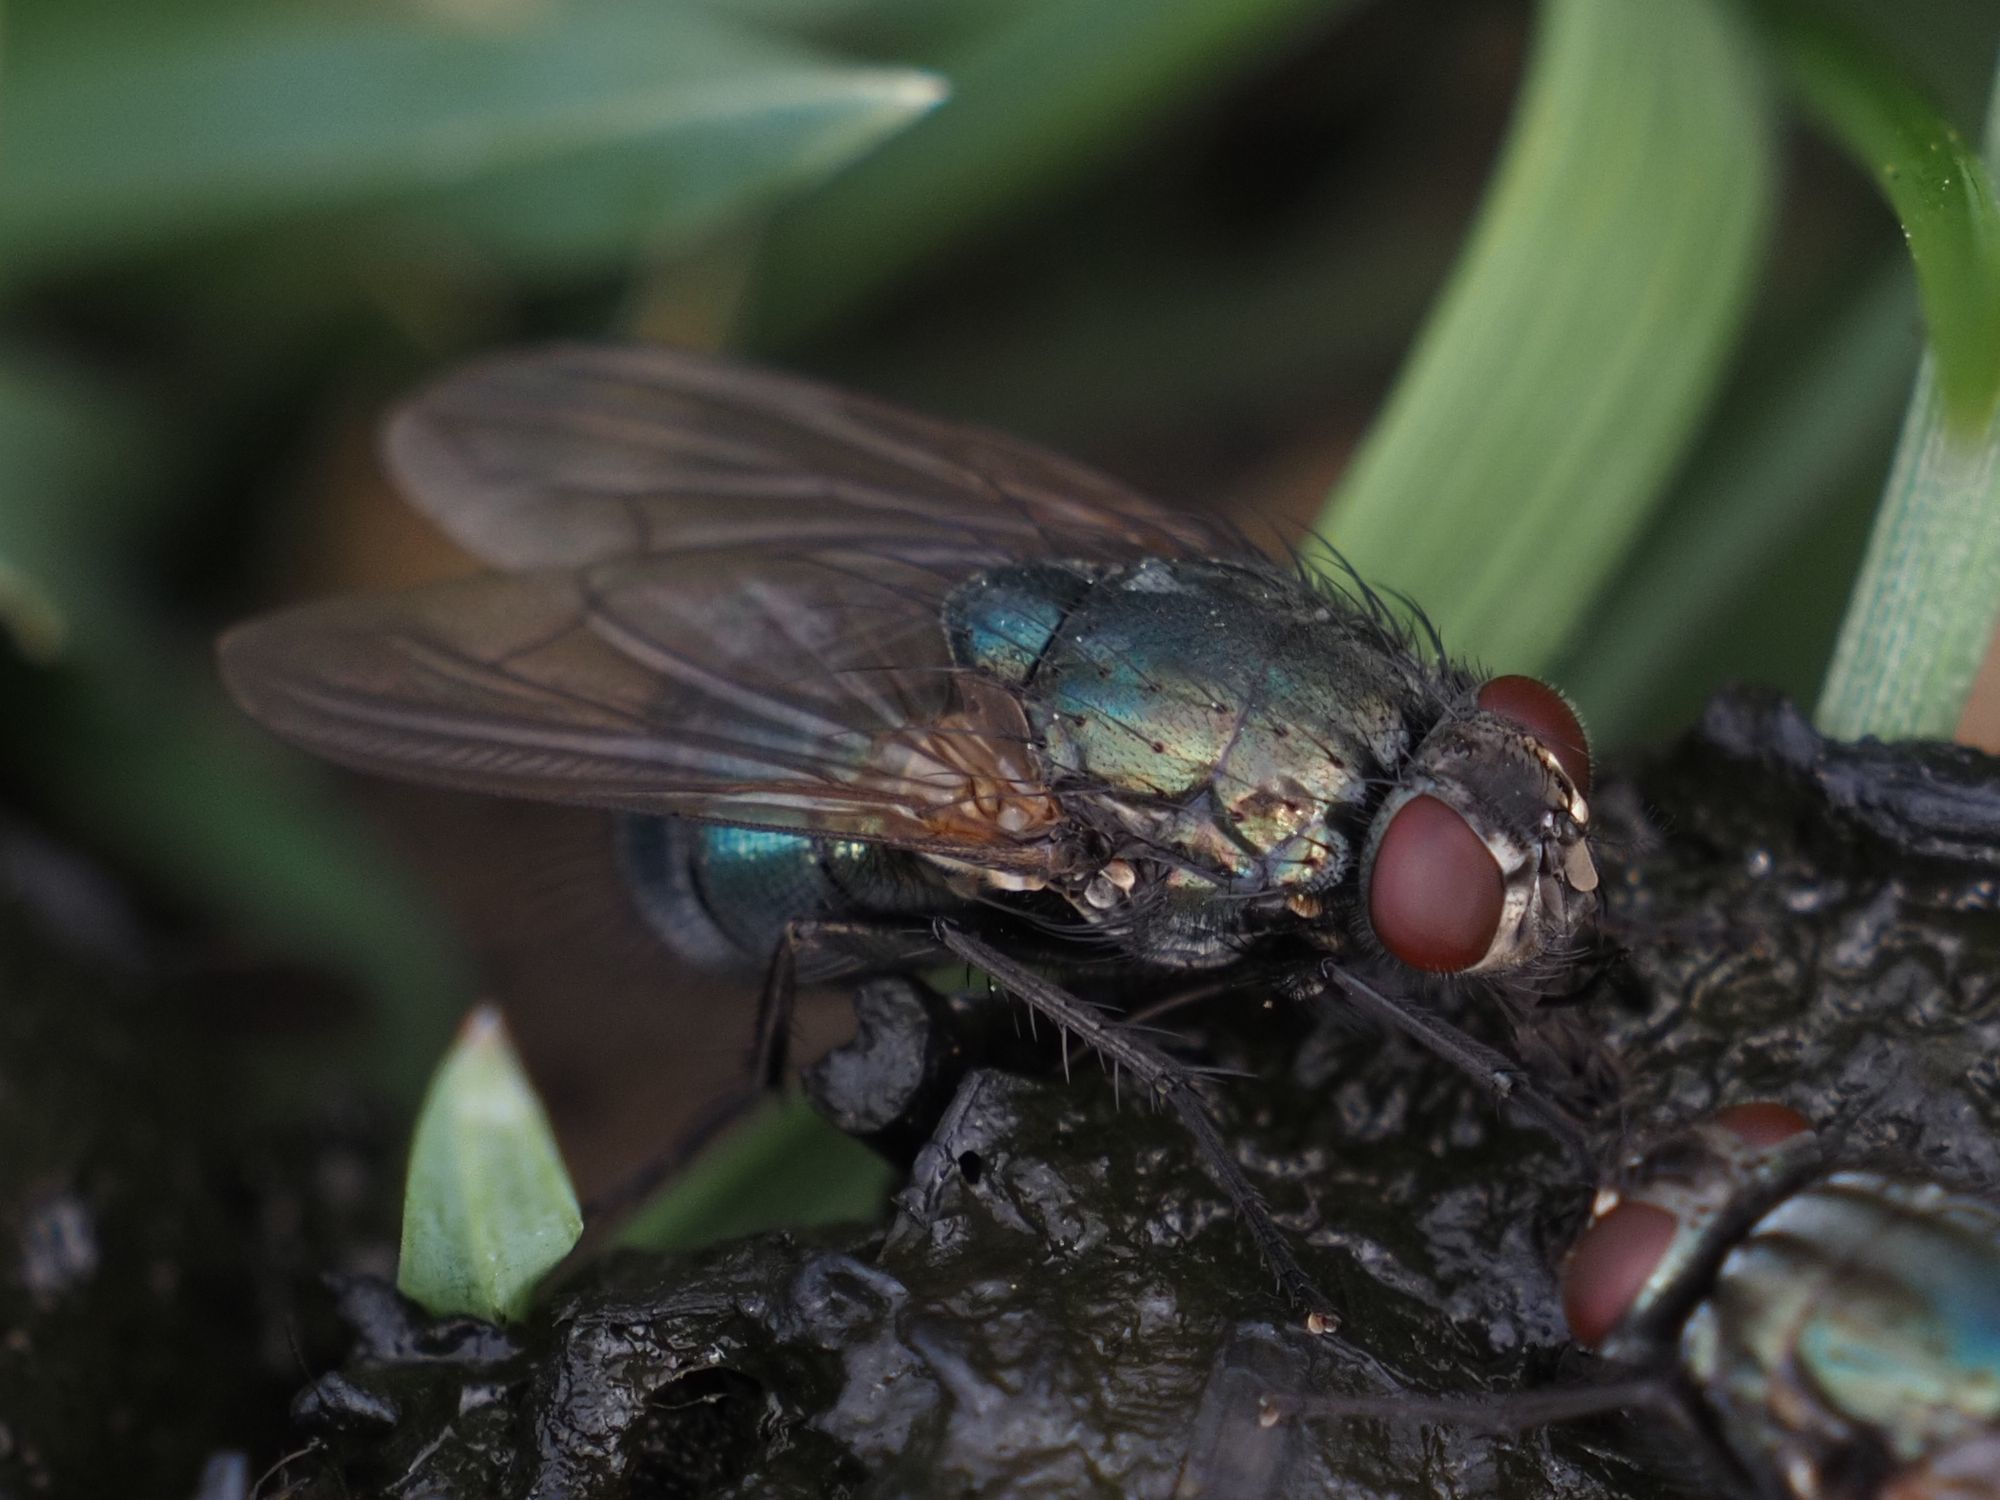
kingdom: Animalia
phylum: Arthropoda
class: Insecta
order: Diptera
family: Muscidae
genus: Dasyphora
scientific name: Dasyphora zimini
